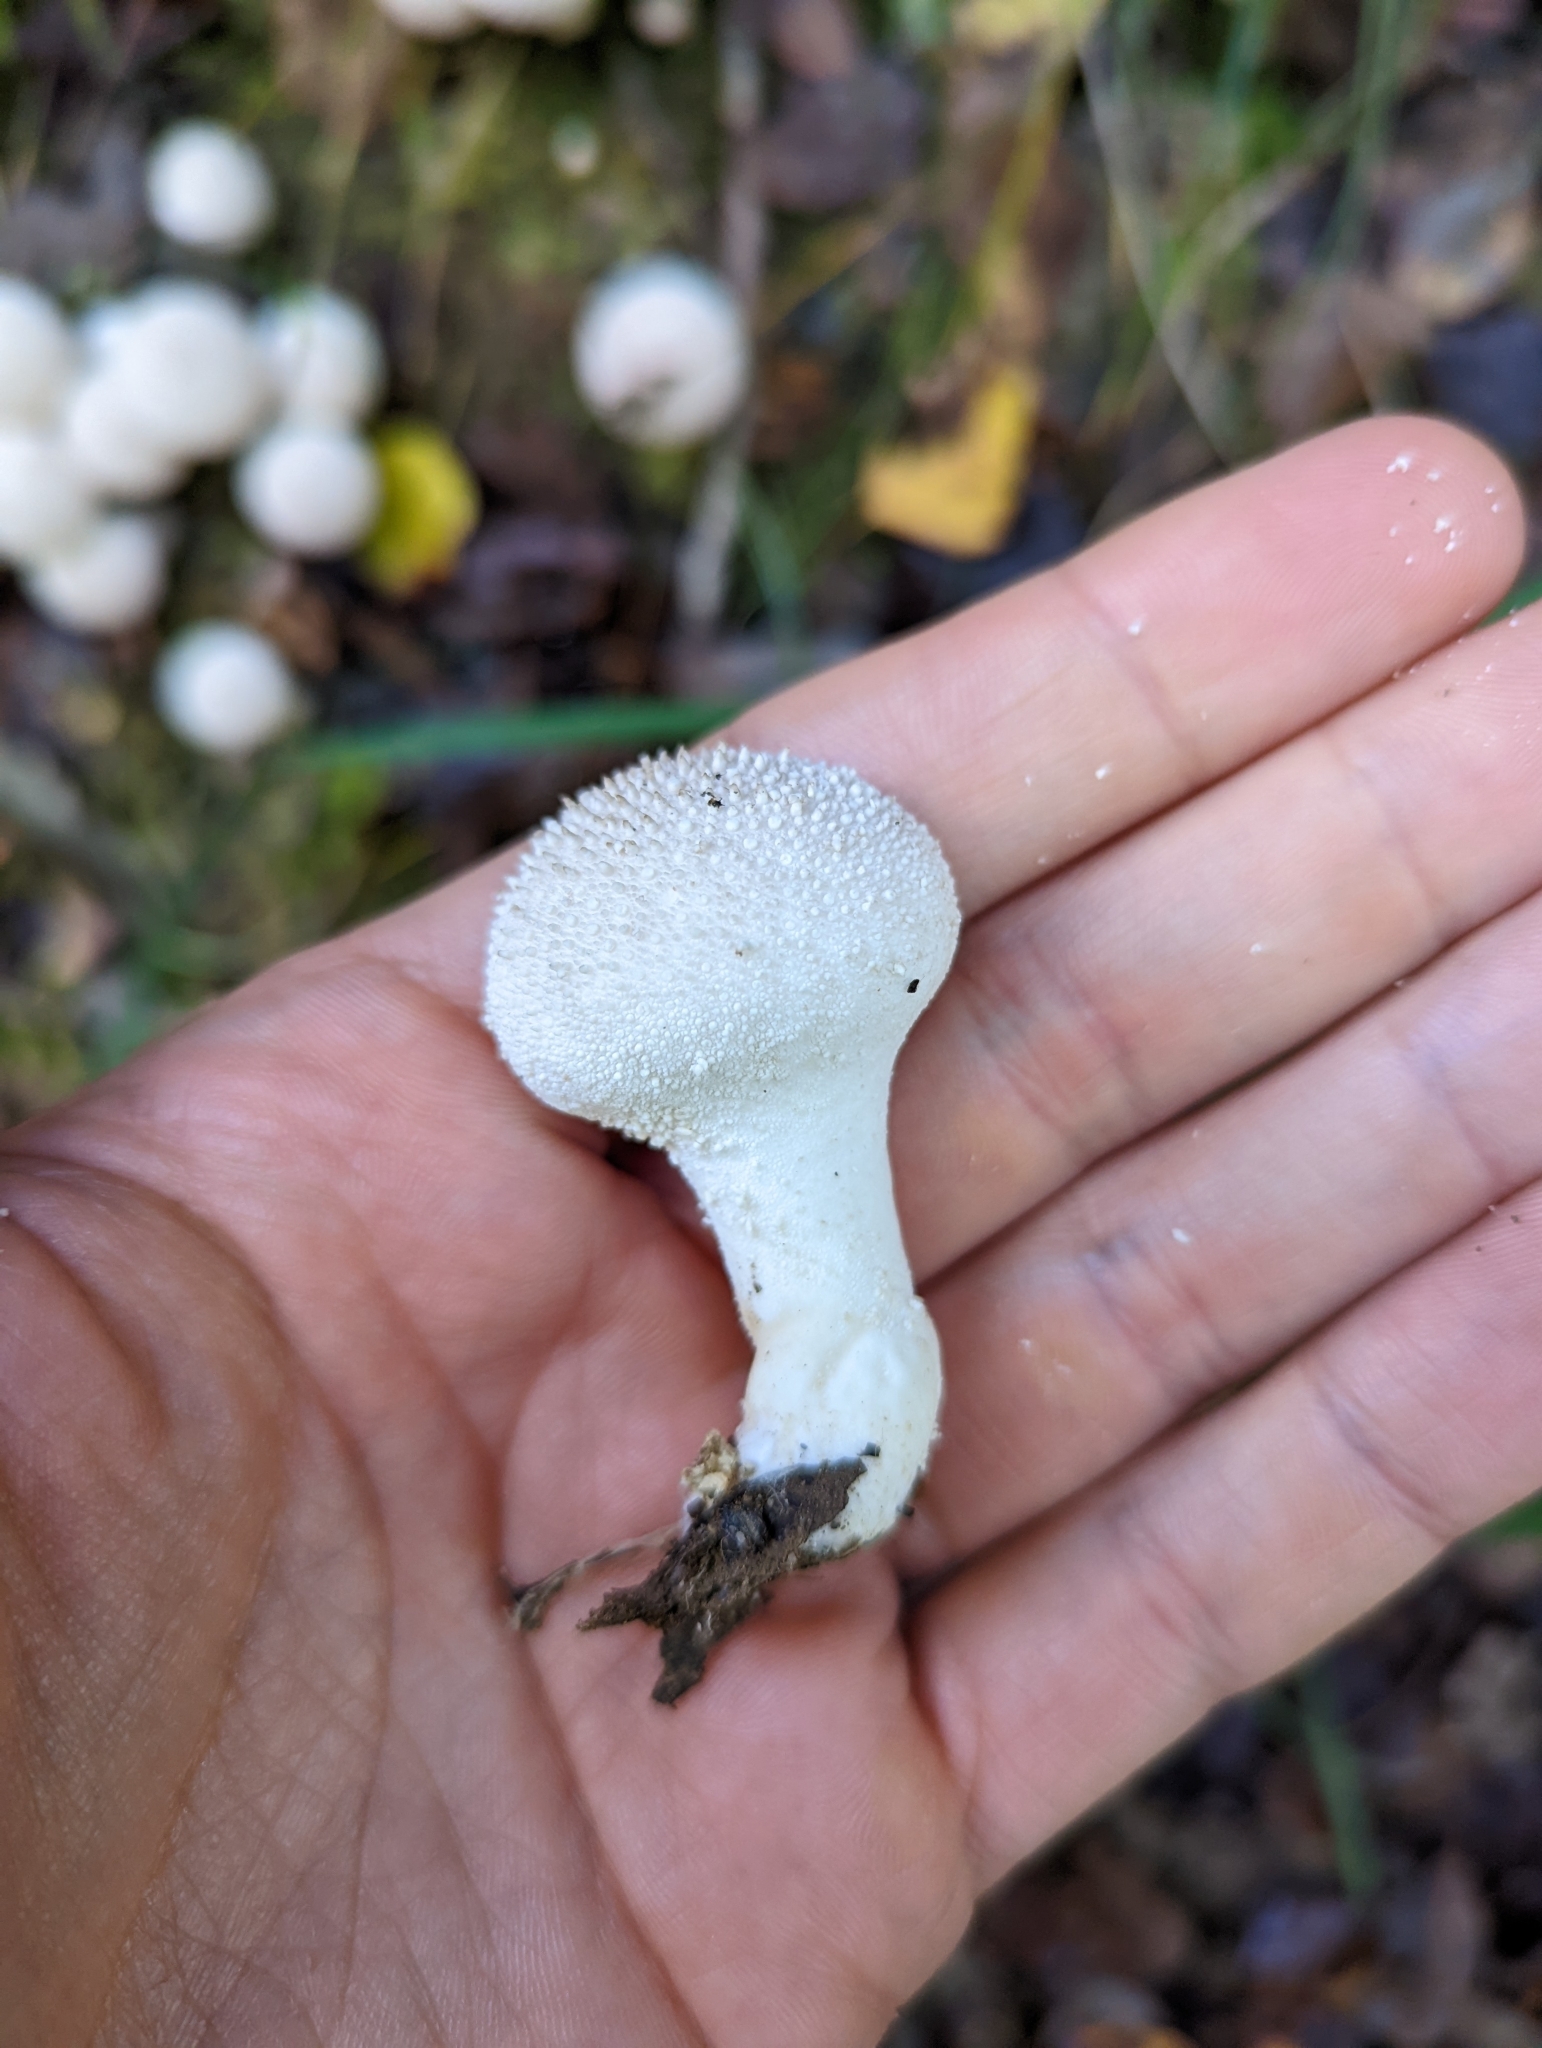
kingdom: Fungi
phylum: Basidiomycota
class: Agaricomycetes
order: Agaricales
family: Lycoperdaceae
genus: Lycoperdon
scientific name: Lycoperdon perlatum
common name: Common puffball
